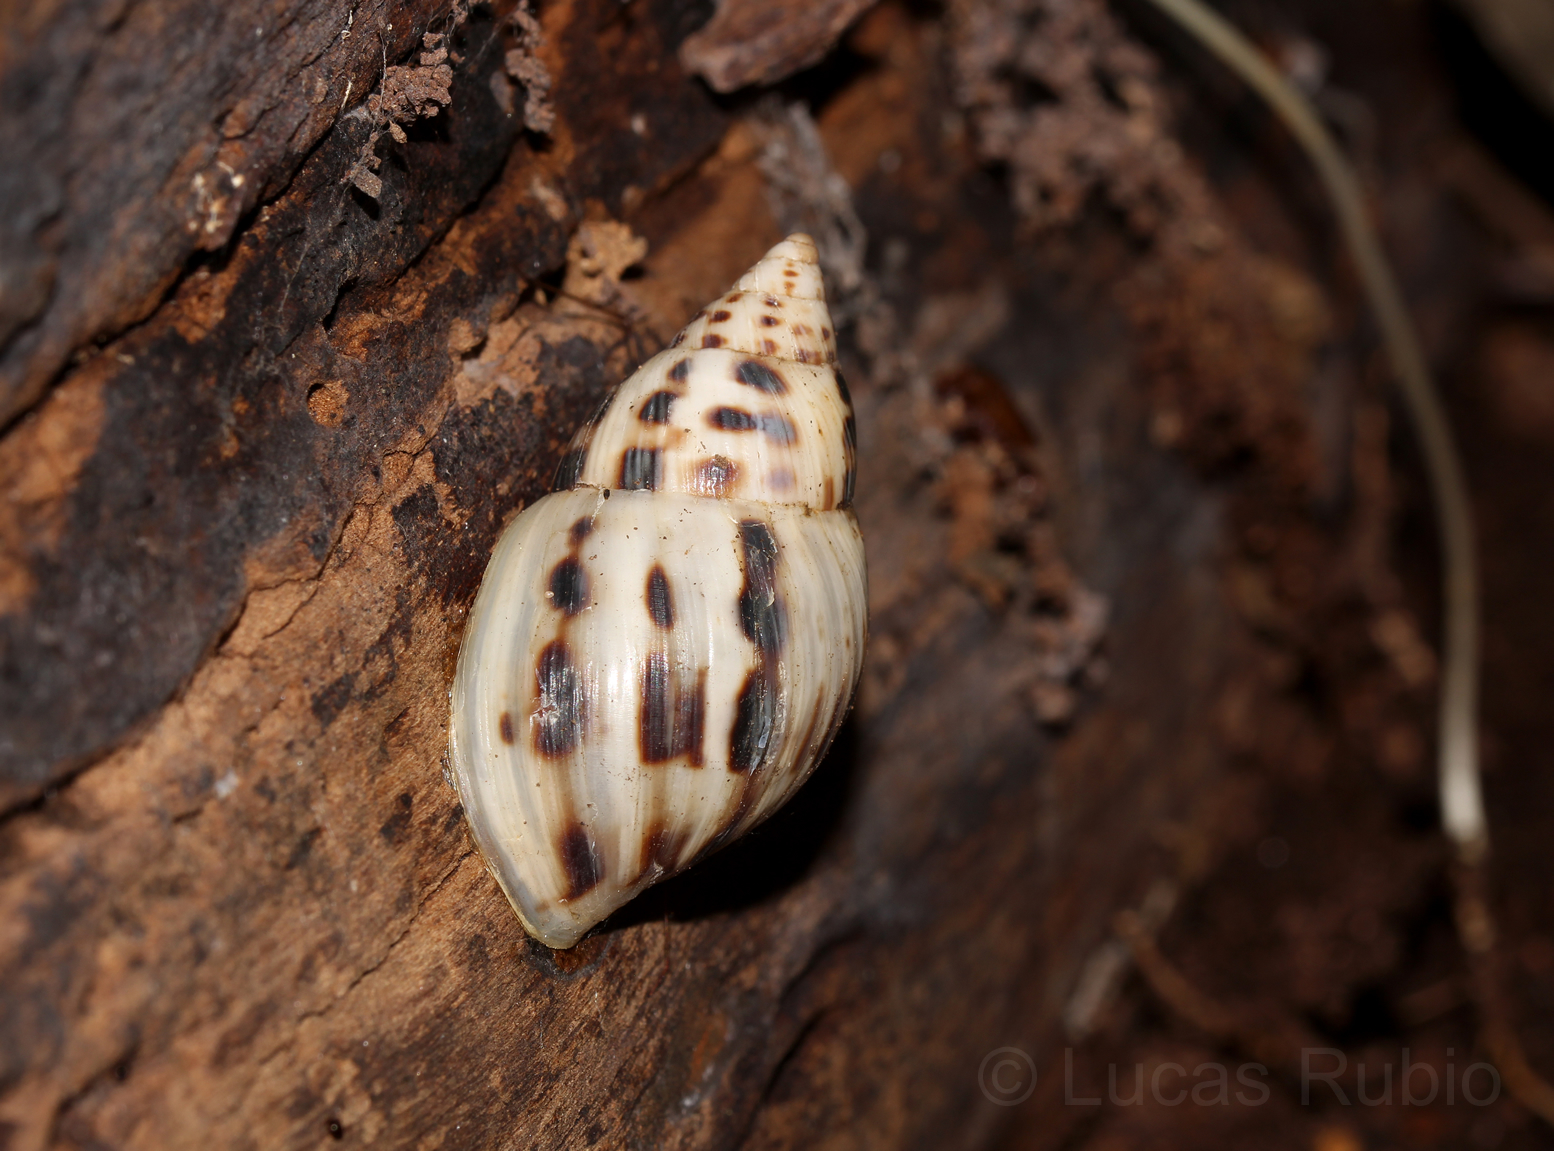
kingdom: Animalia
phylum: Mollusca
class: Gastropoda
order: Stylommatophora
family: Bulimulidae
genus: Drymaeus
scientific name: Drymaeus papyraceus
